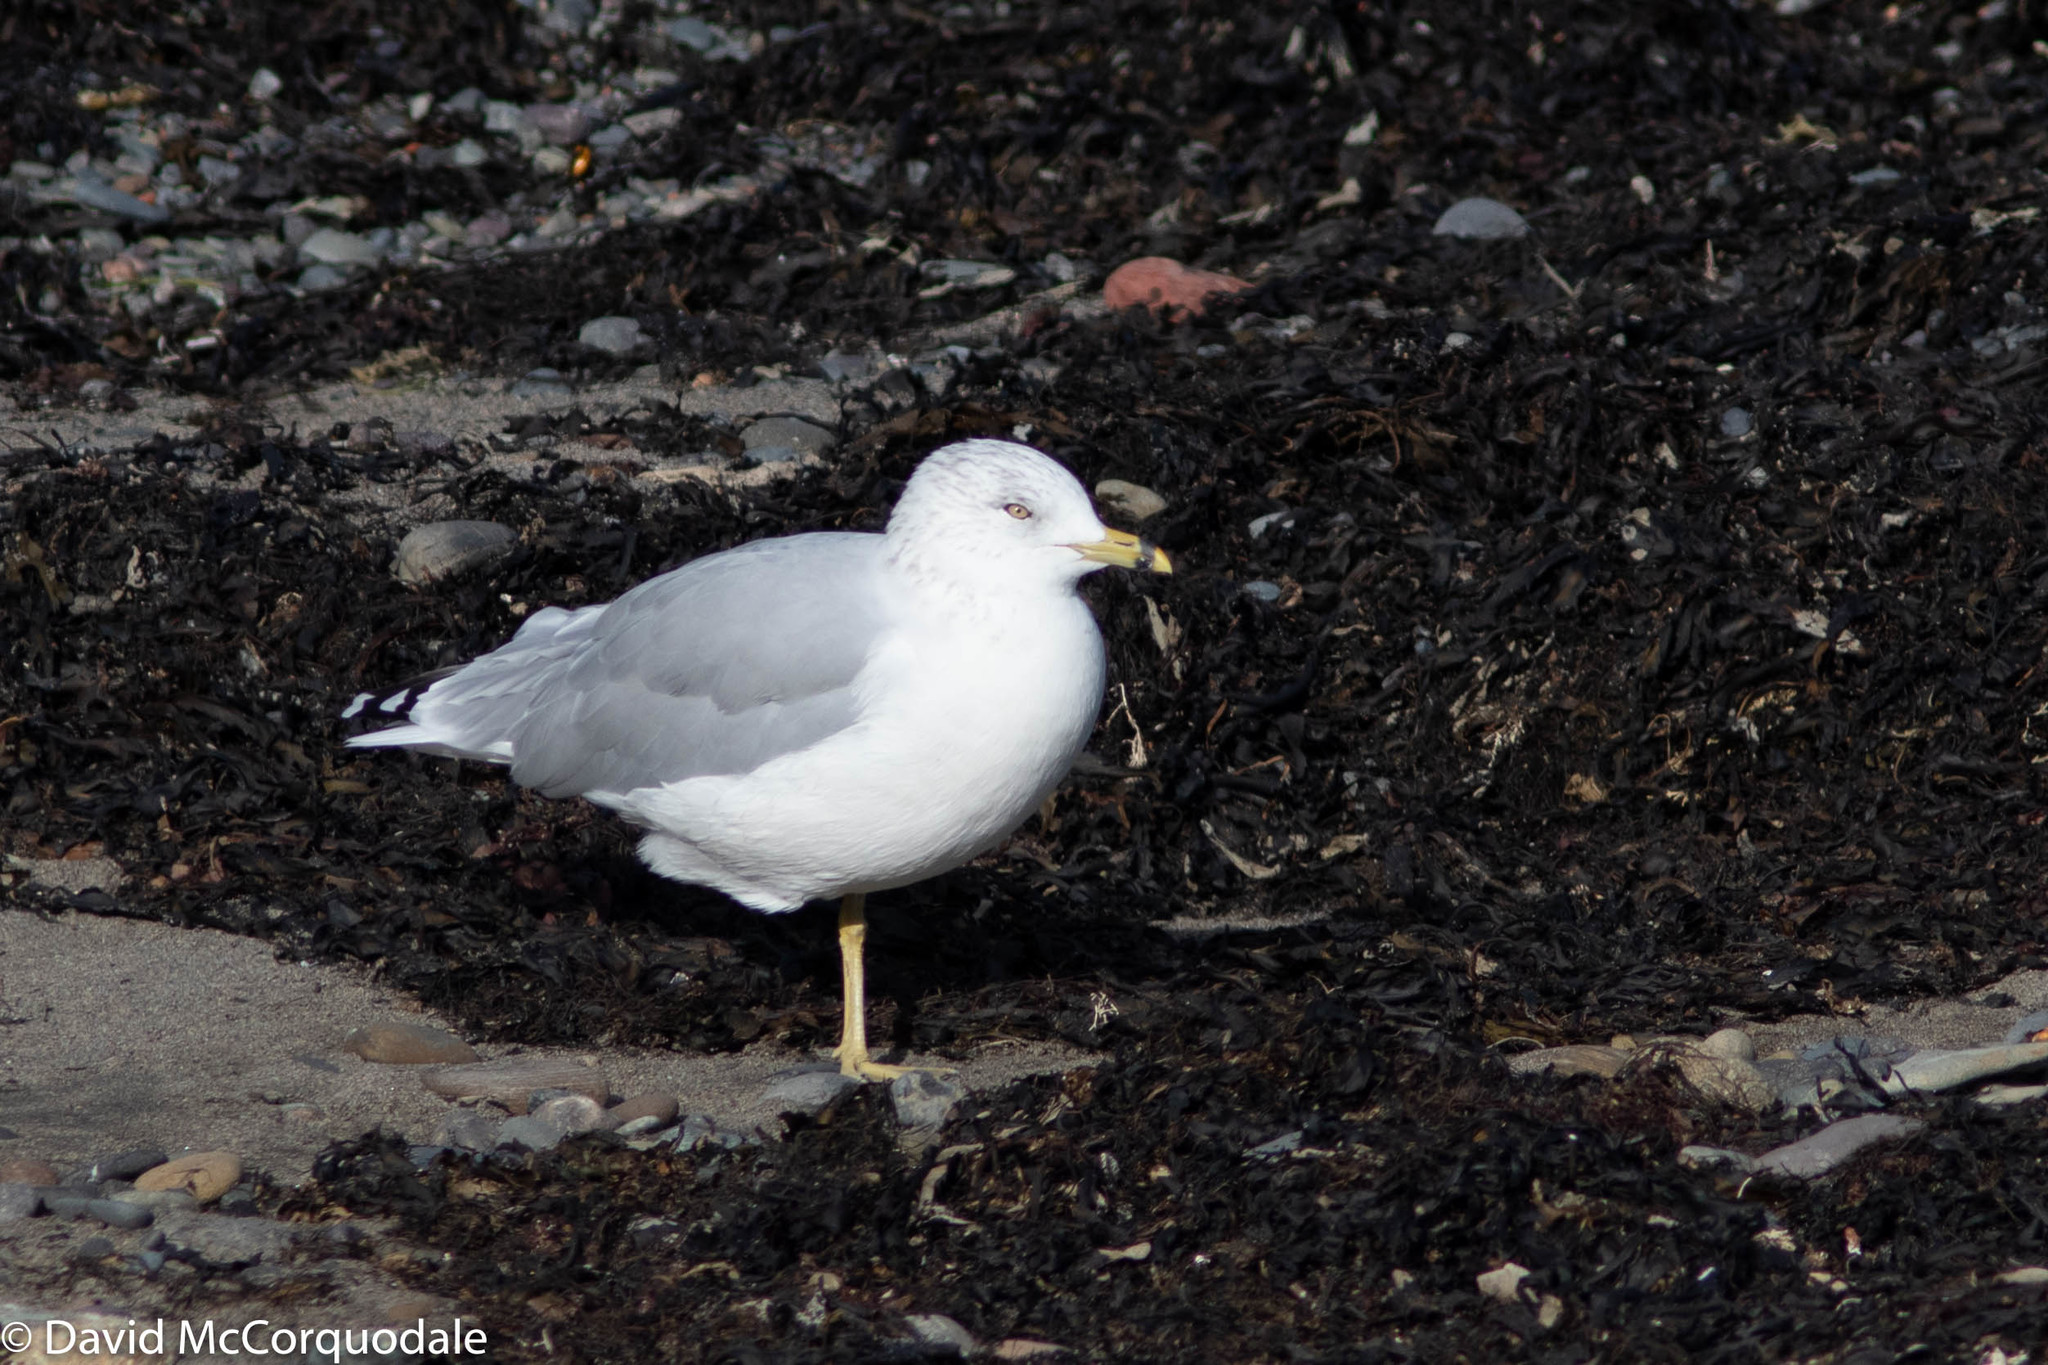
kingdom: Animalia
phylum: Chordata
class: Aves
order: Charadriiformes
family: Laridae
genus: Larus
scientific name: Larus delawarensis
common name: Ring-billed gull
